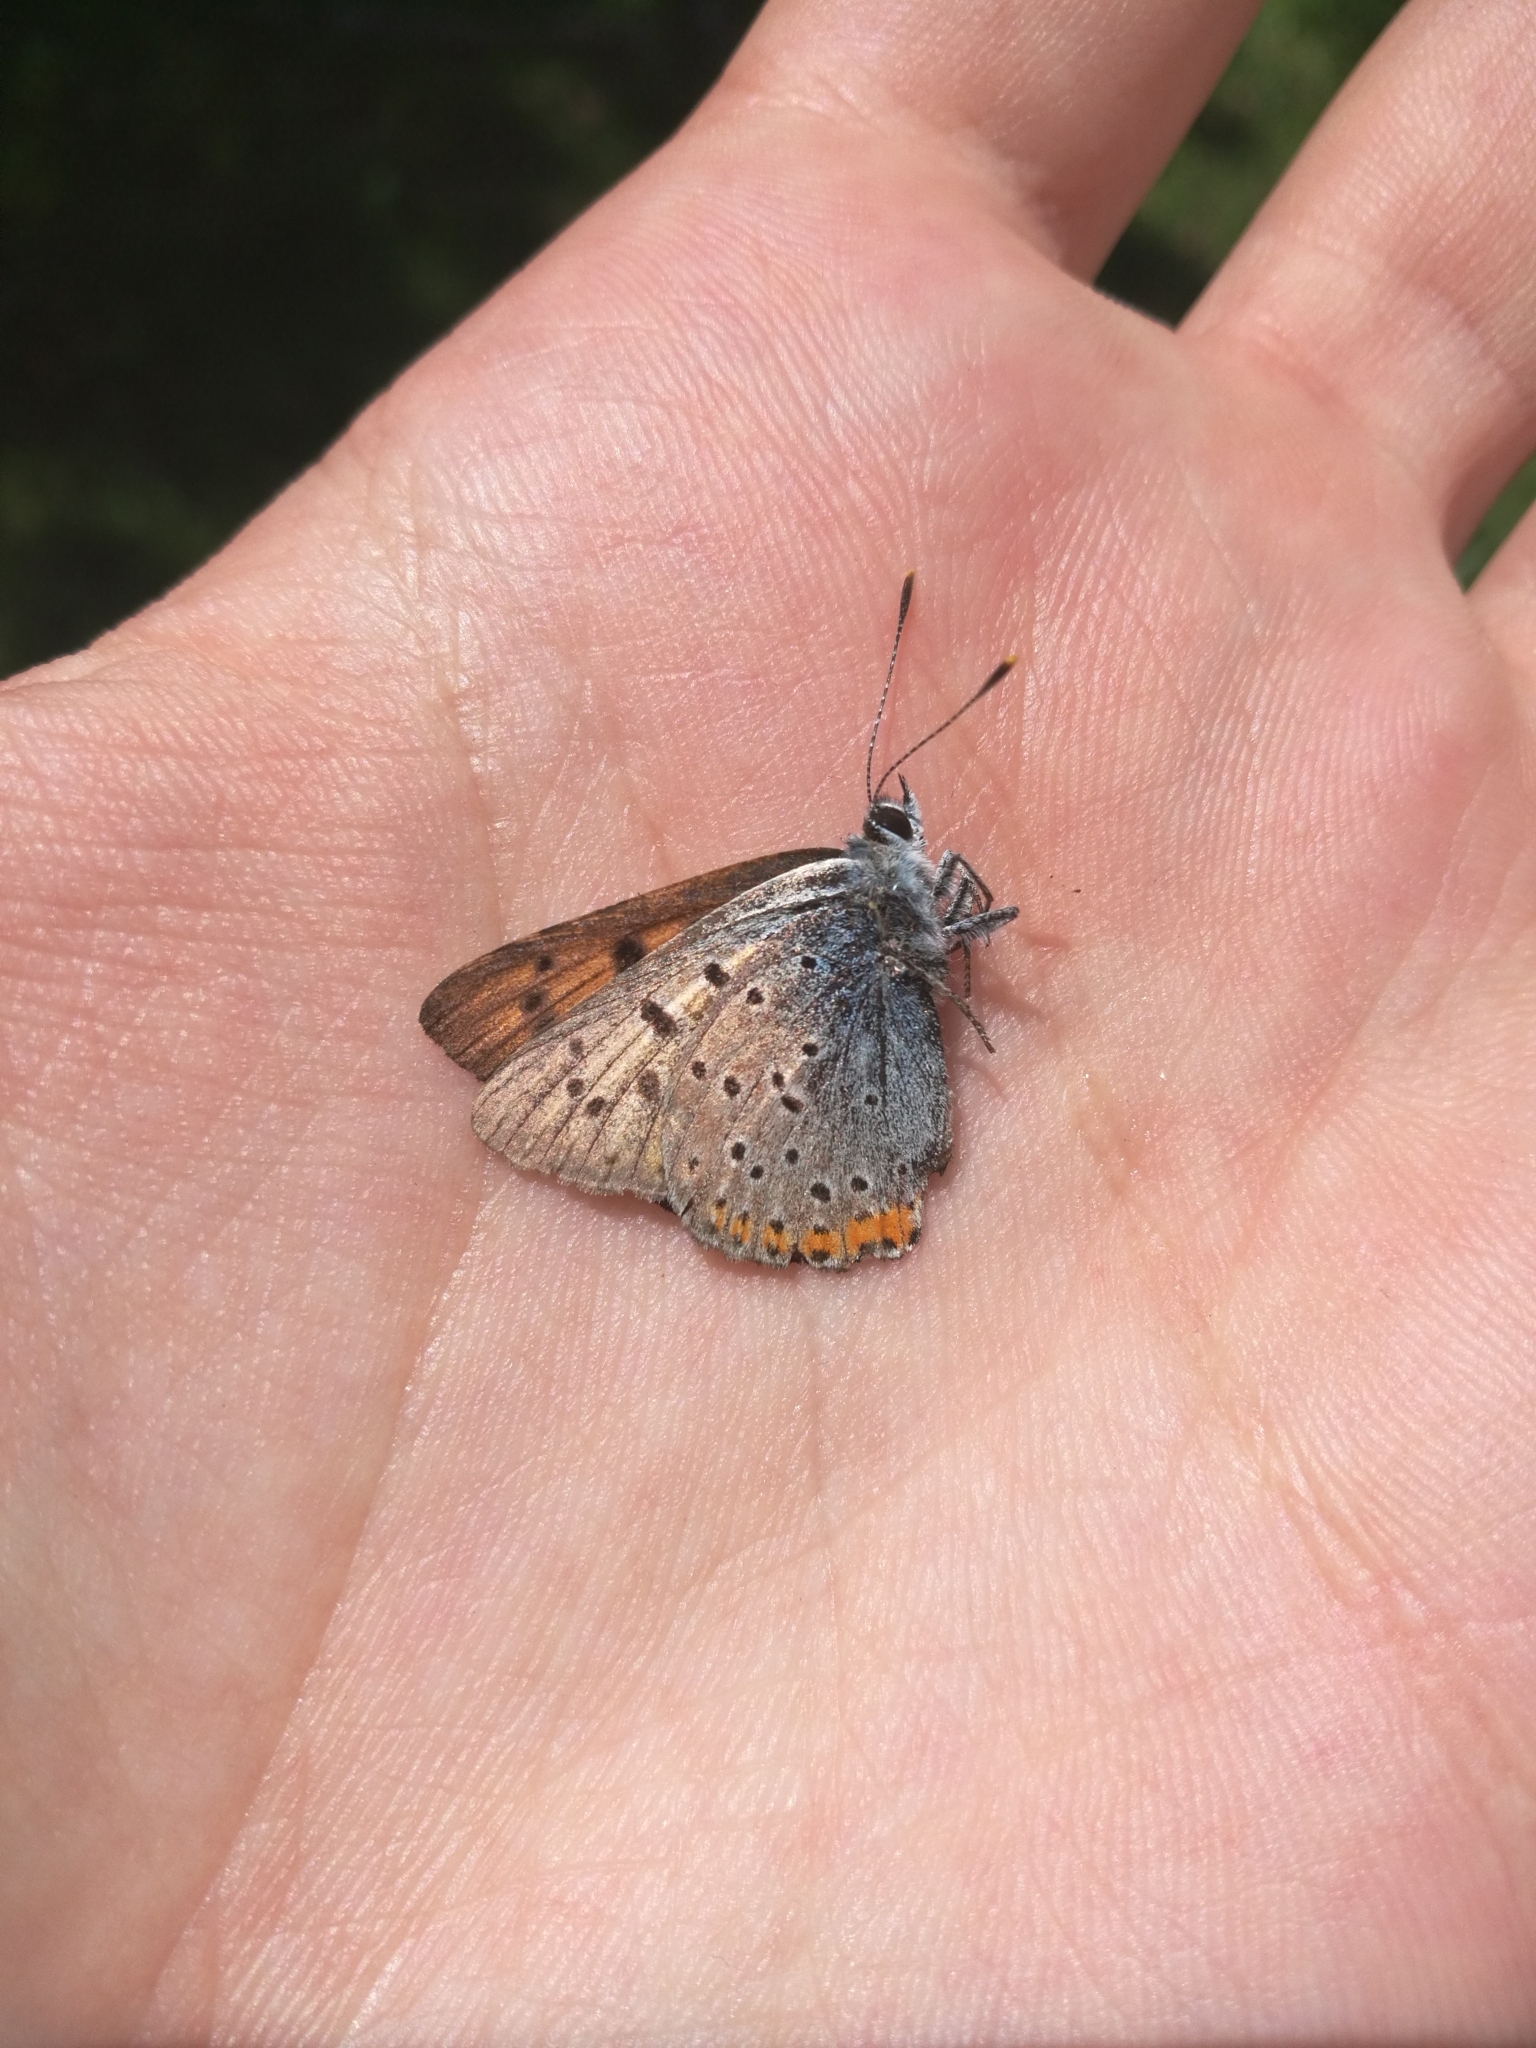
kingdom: Animalia
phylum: Arthropoda
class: Insecta
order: Lepidoptera
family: Lycaenidae
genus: Lycaena
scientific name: Lycaena alciphron
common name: Purple-shot copper
